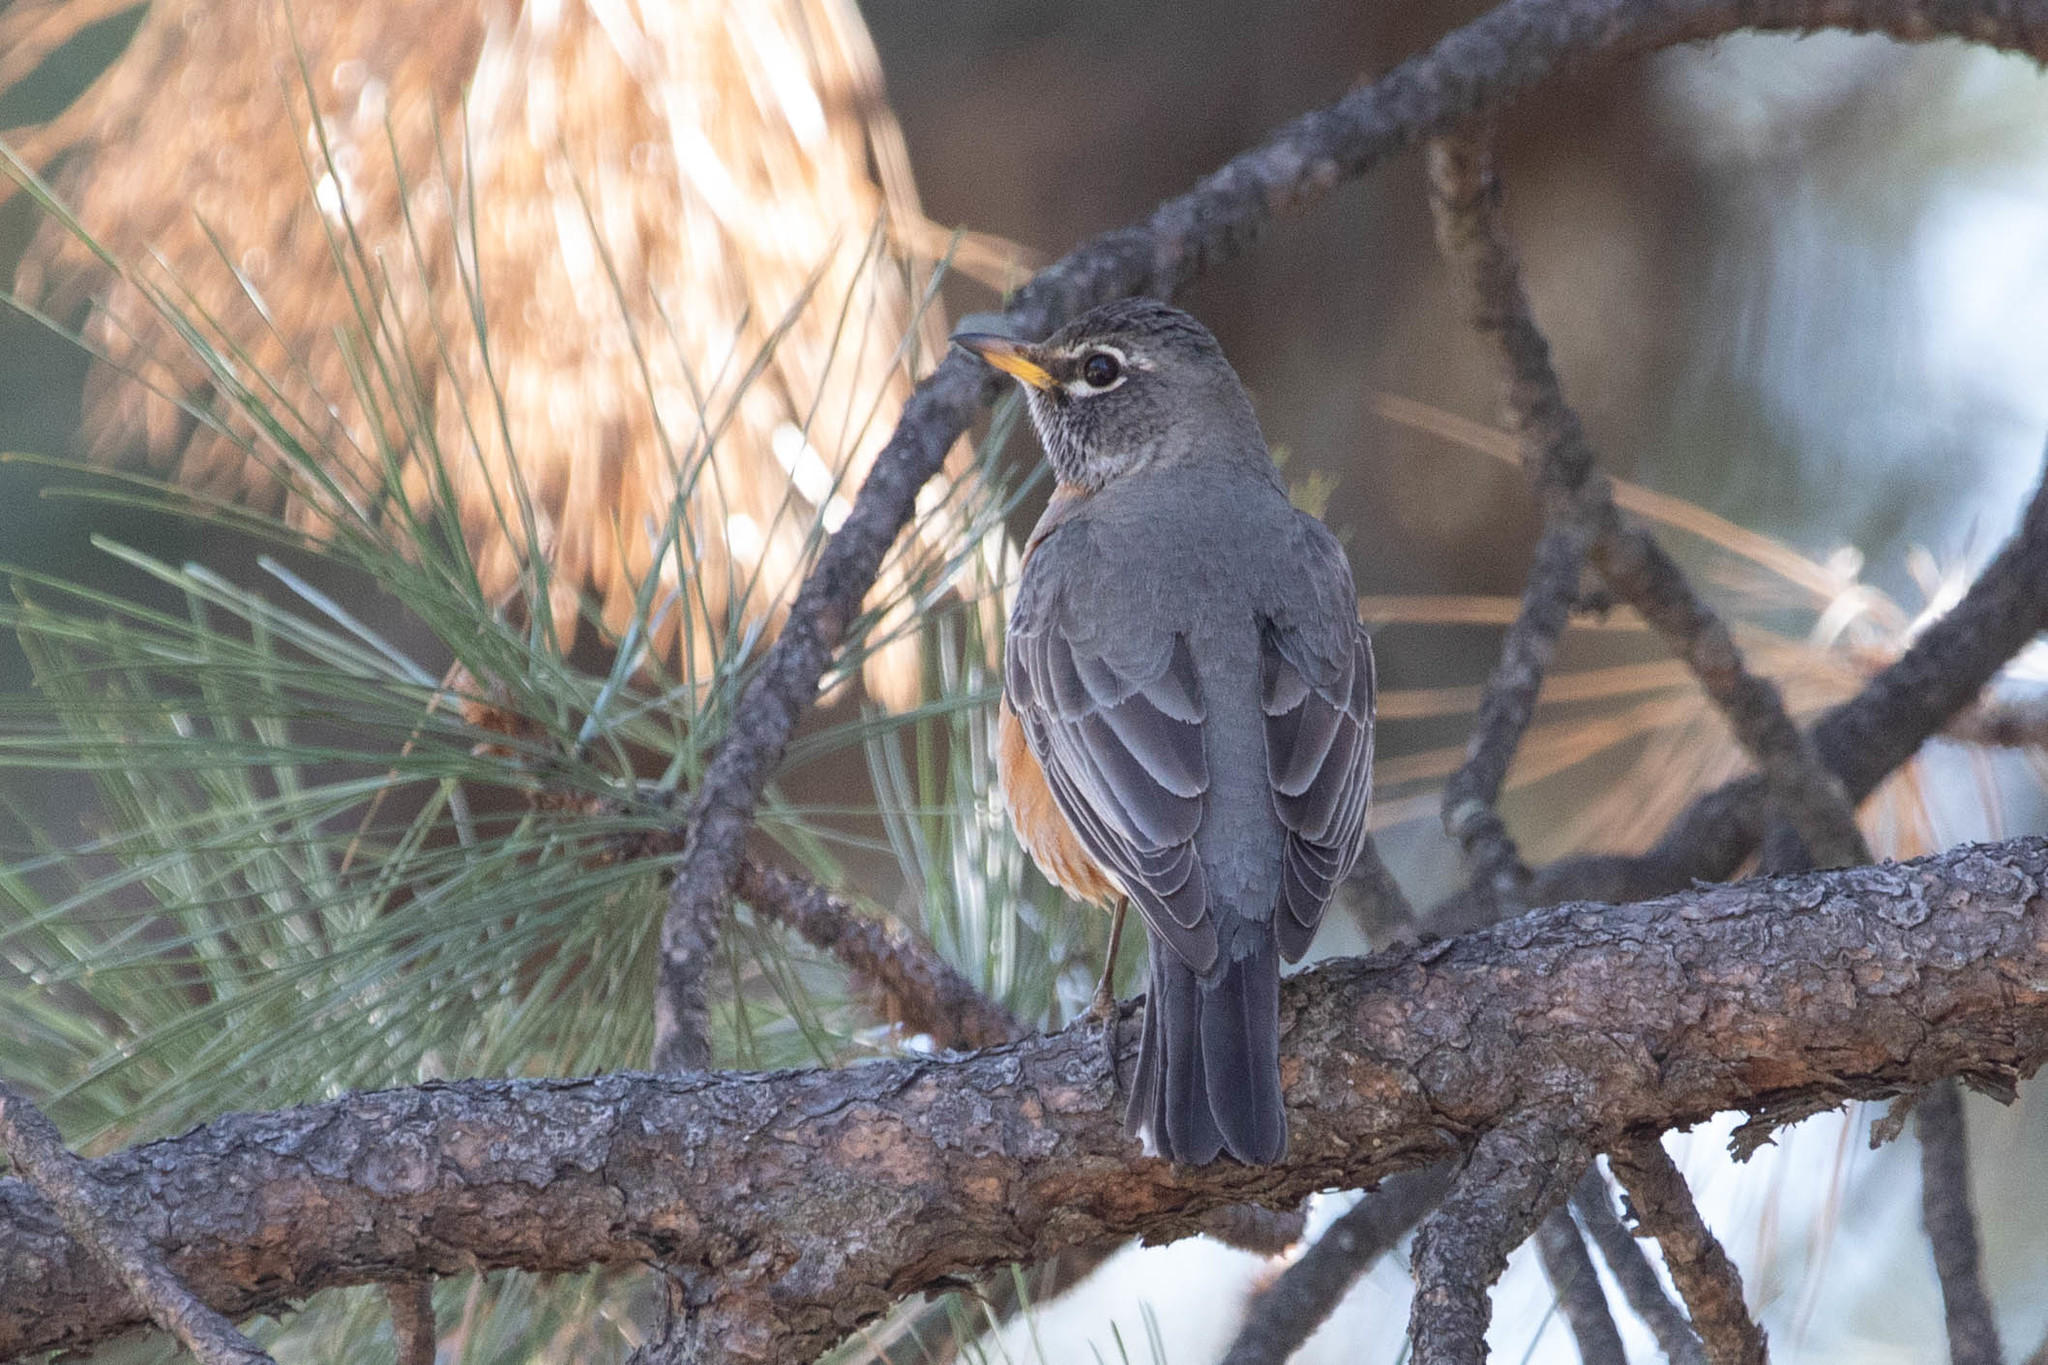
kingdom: Animalia
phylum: Chordata
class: Aves
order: Passeriformes
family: Turdidae
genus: Turdus
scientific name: Turdus migratorius
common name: American robin
